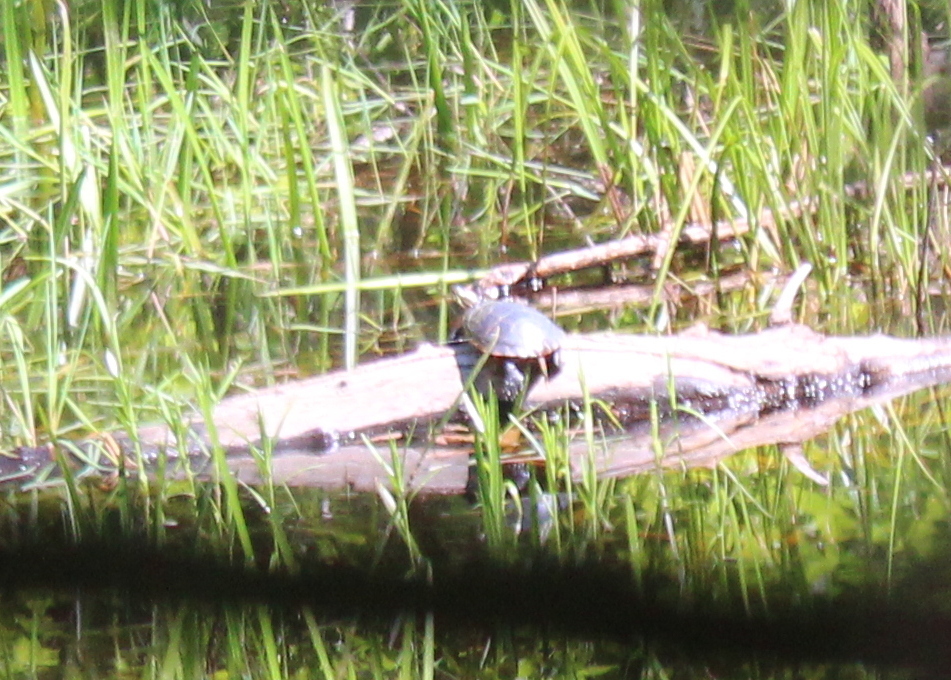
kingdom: Animalia
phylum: Chordata
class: Testudines
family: Emydidae
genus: Chrysemys
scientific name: Chrysemys picta
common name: Painted turtle
